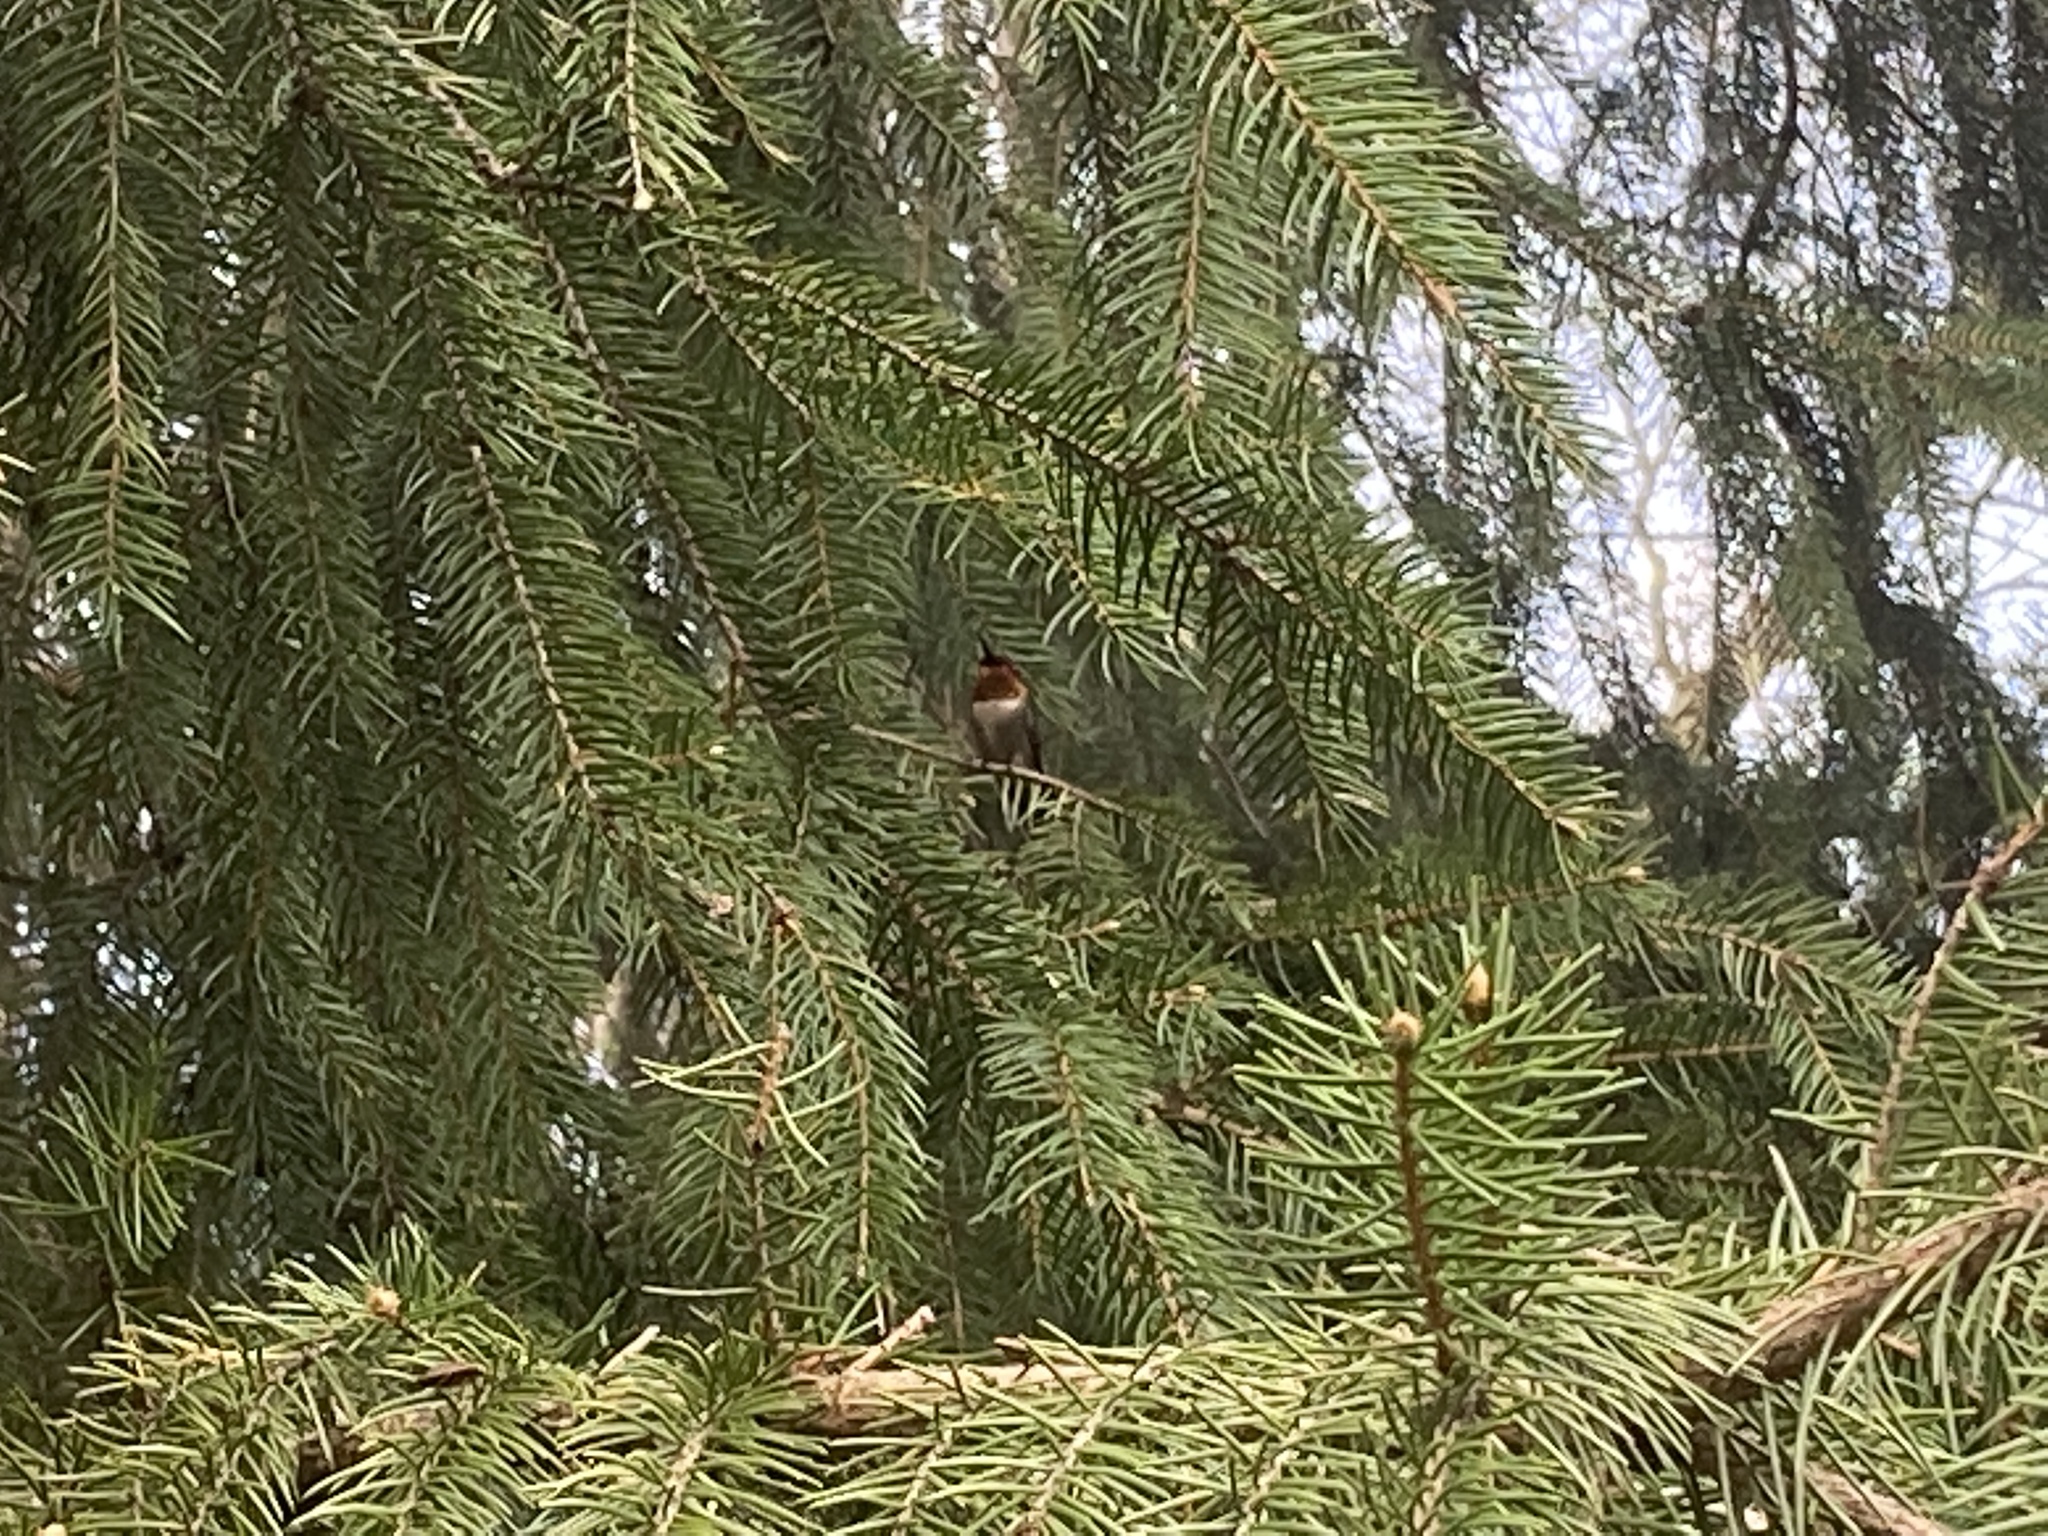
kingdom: Animalia
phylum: Chordata
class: Aves
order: Apodiformes
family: Trochilidae
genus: Archilochus
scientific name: Archilochus colubris
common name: Ruby-throated hummingbird
